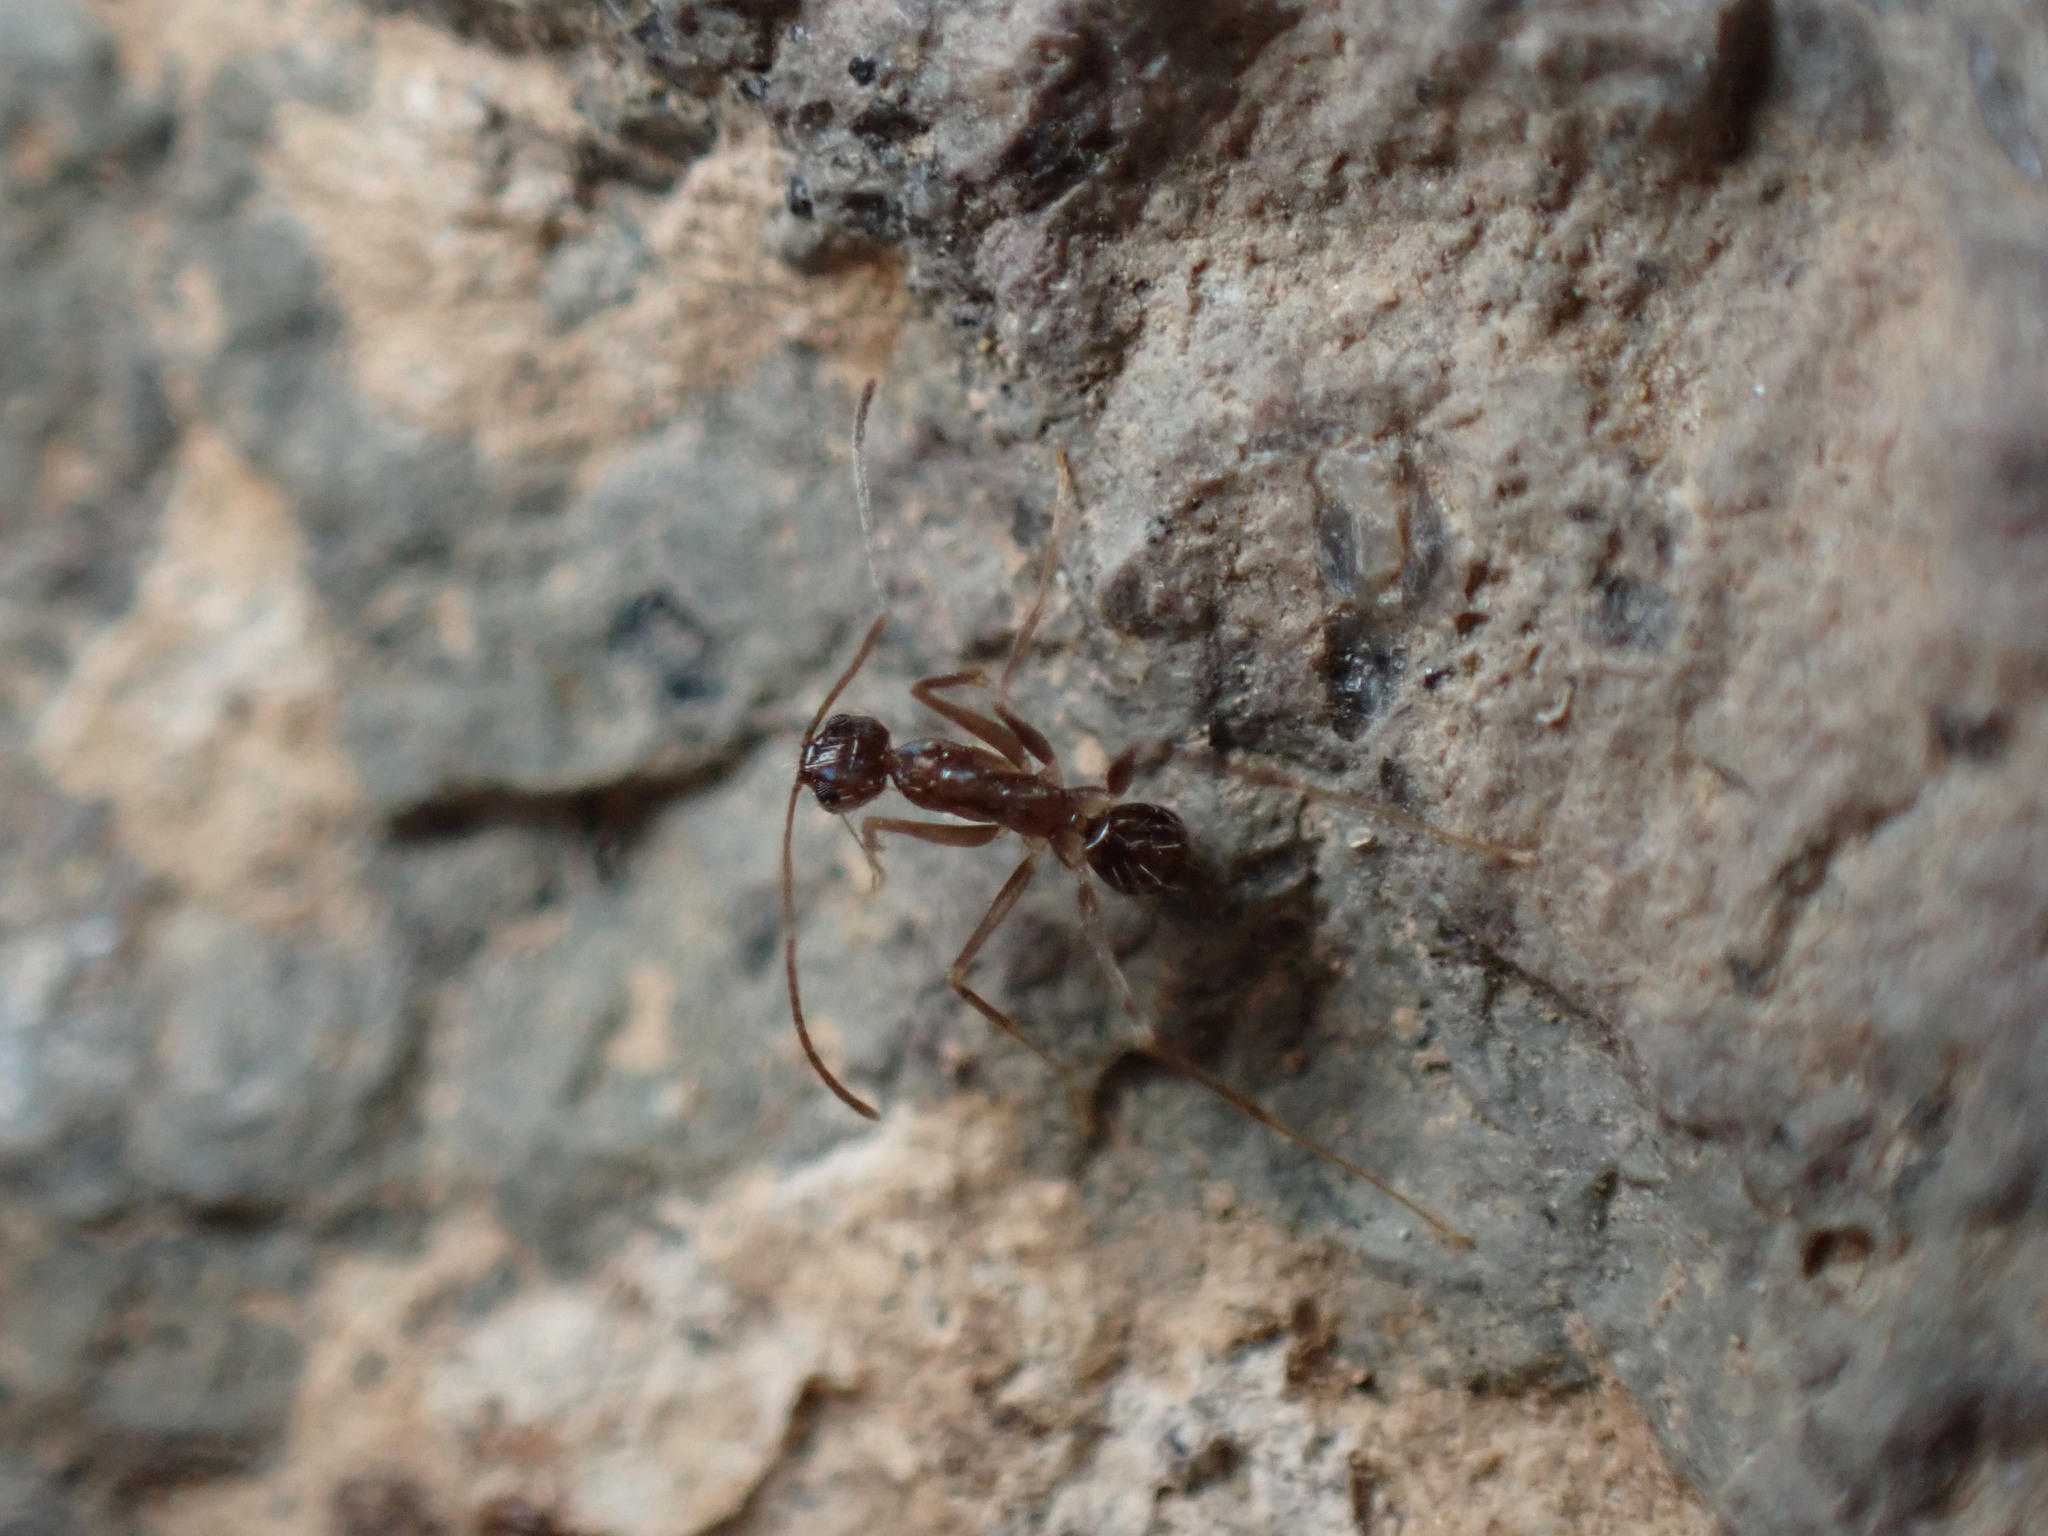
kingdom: Animalia
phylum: Arthropoda
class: Insecta
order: Hymenoptera
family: Formicidae
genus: Paratrechina
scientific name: Paratrechina longicornis
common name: Longhorned crazy ant
